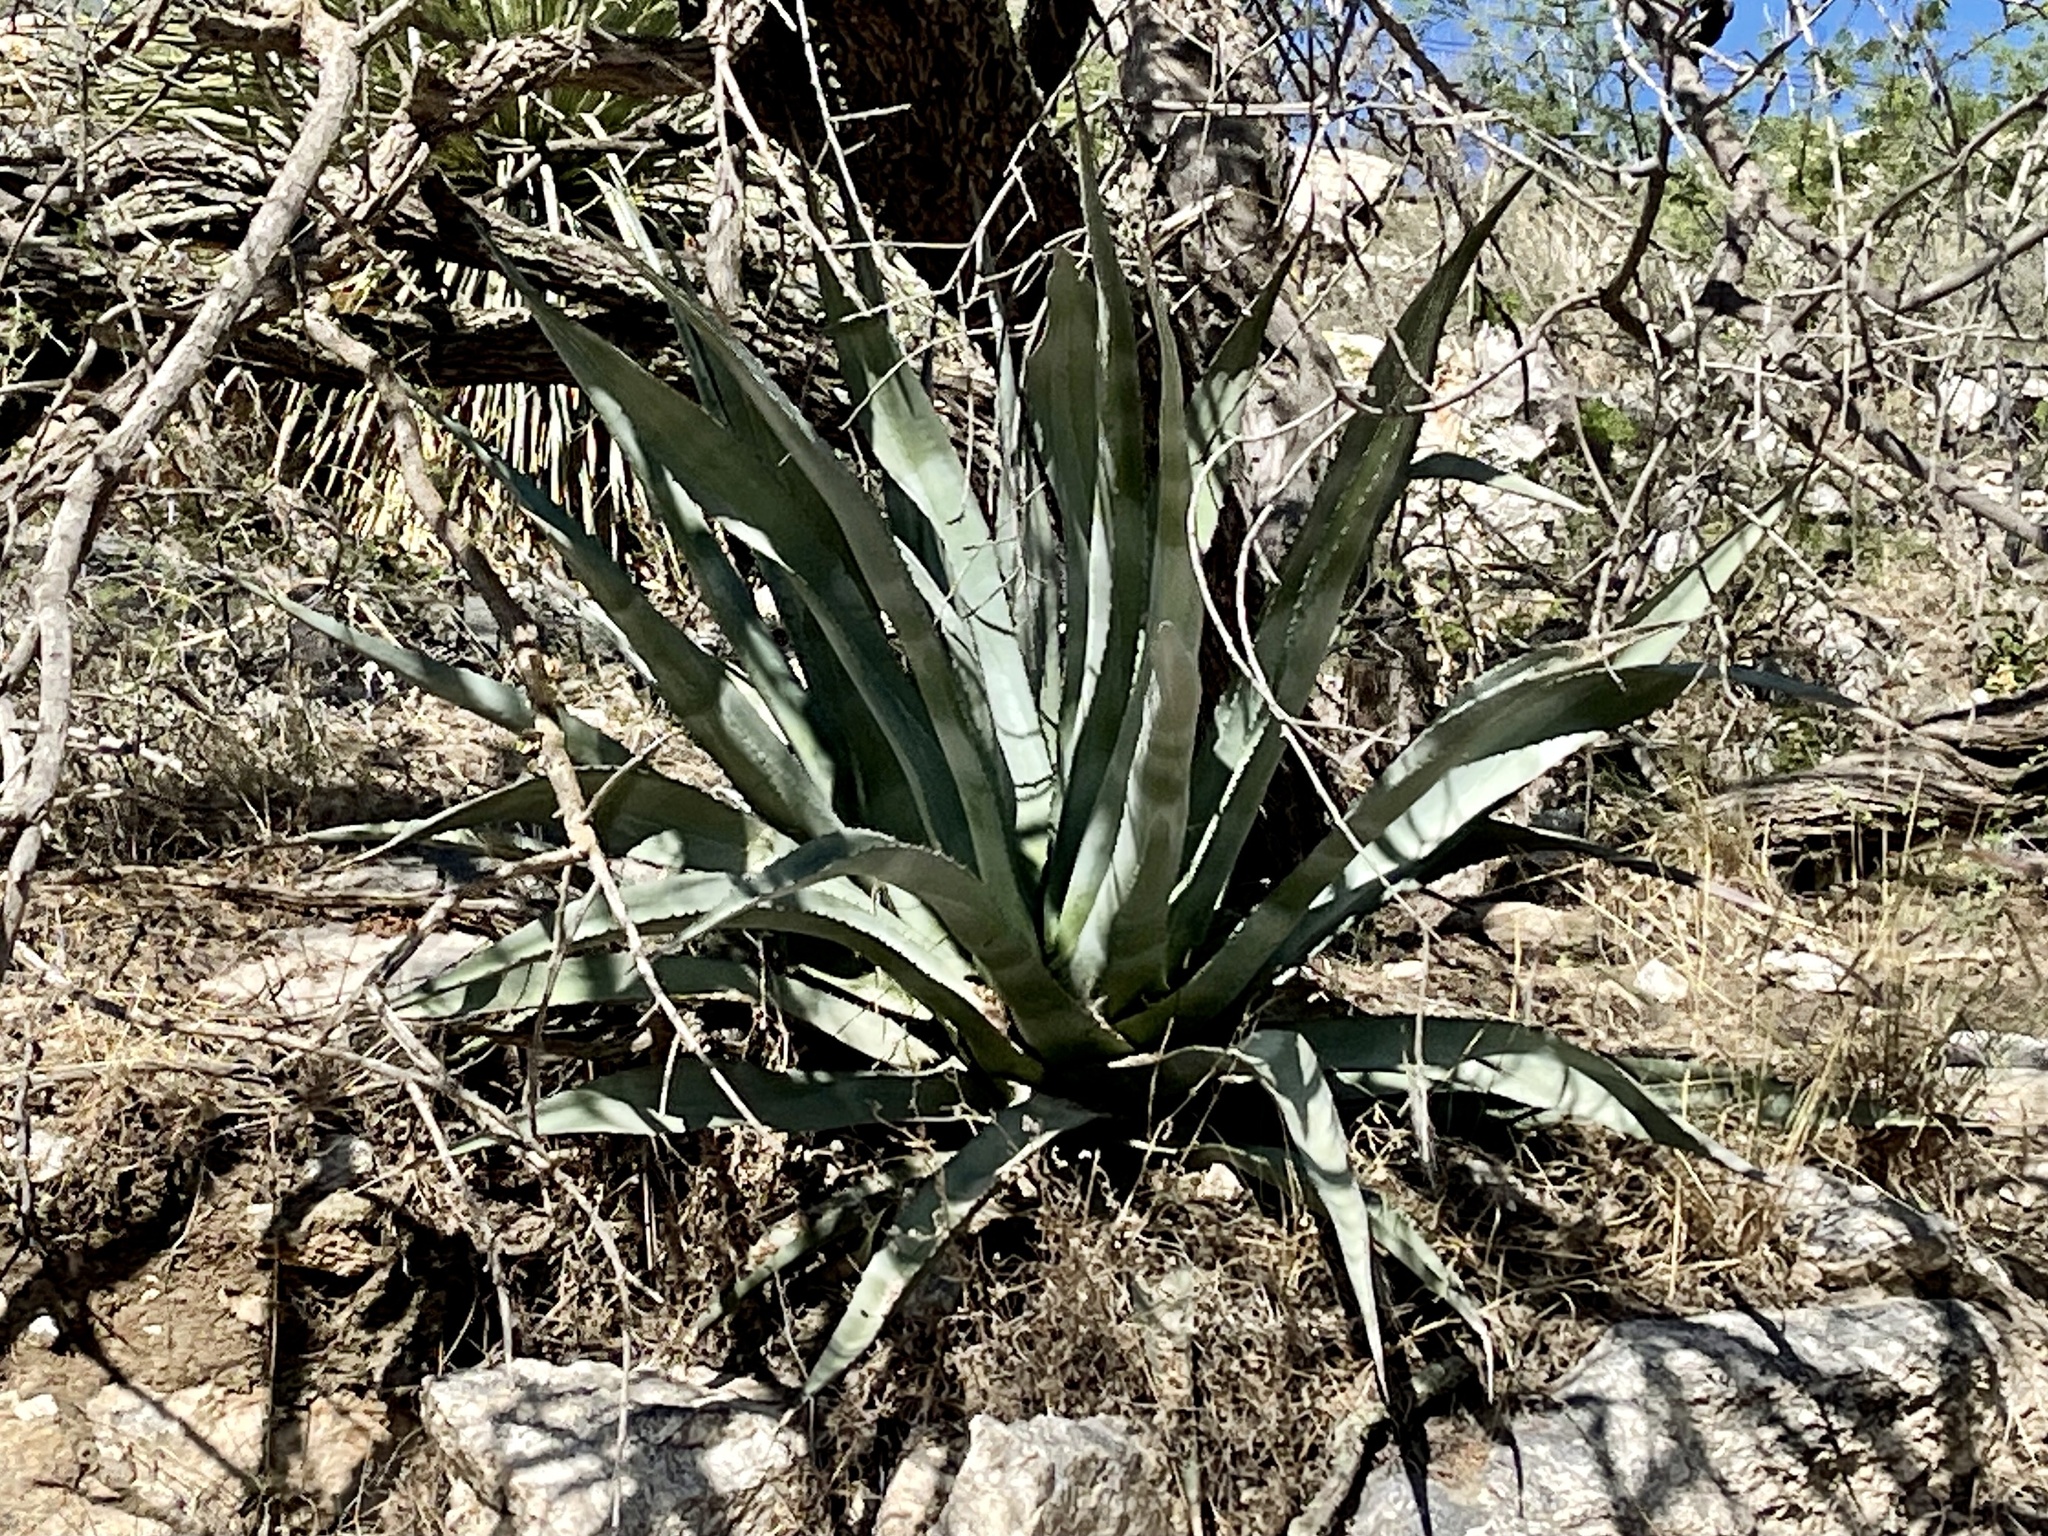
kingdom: Plantae
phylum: Tracheophyta
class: Liliopsida
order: Asparagales
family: Asparagaceae
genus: Agave
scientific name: Agave palmeri
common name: Palmer agave
